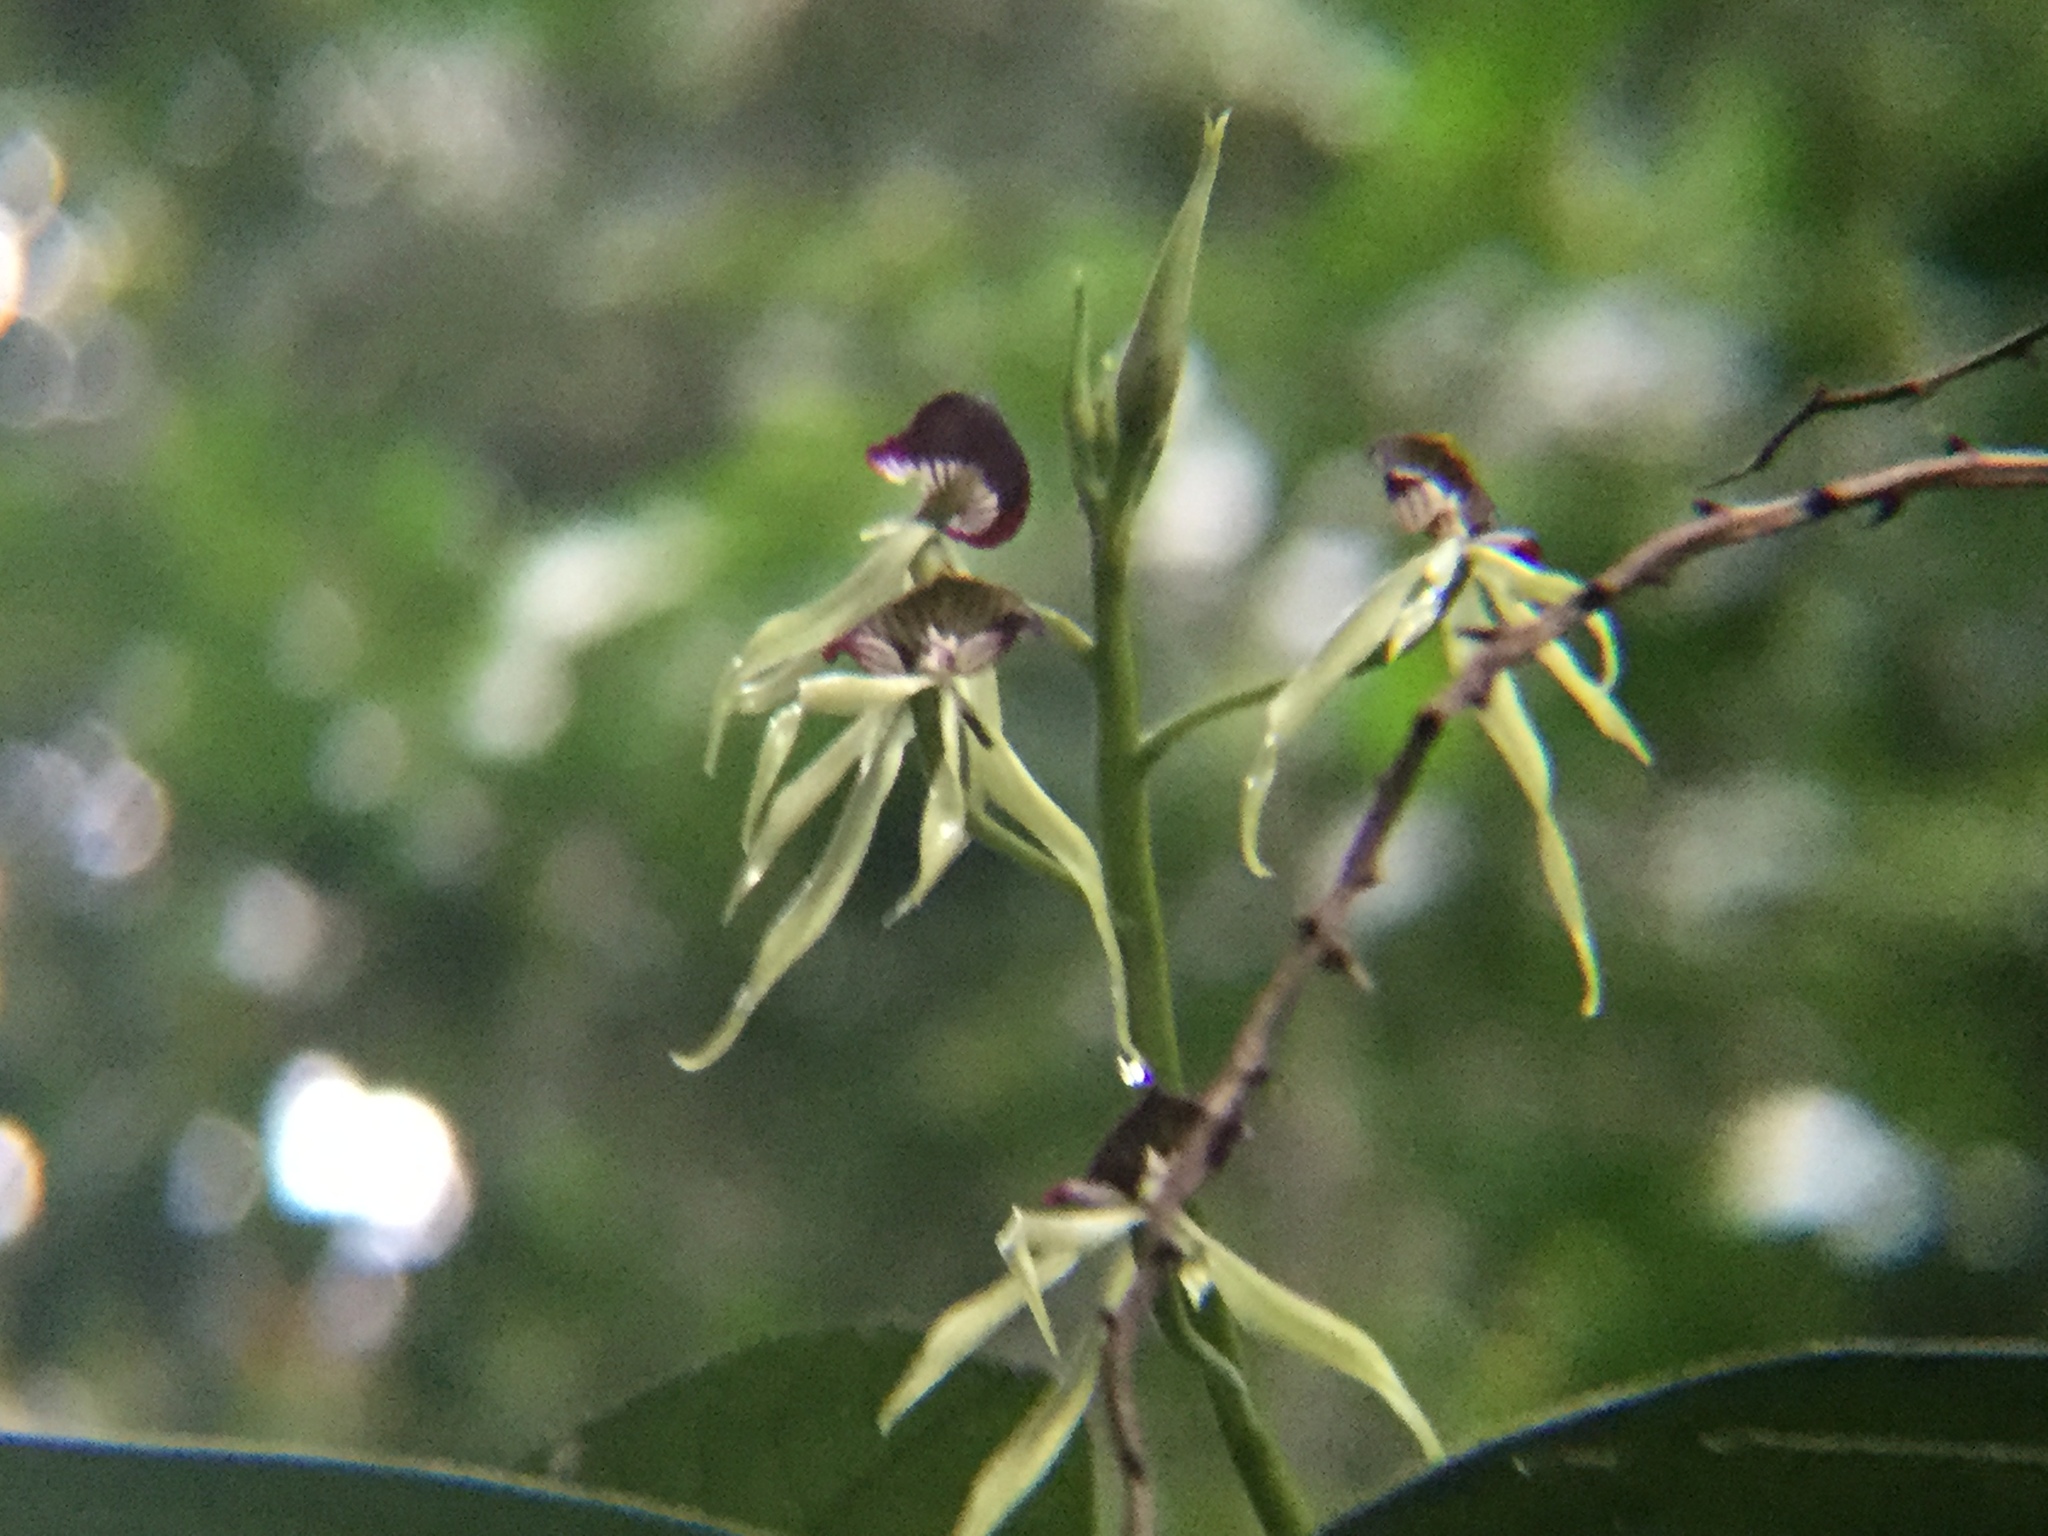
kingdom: Plantae
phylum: Tracheophyta
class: Liliopsida
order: Asparagales
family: Orchidaceae
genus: Prosthechea
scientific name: Prosthechea cochleata
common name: Clamshell orchid
